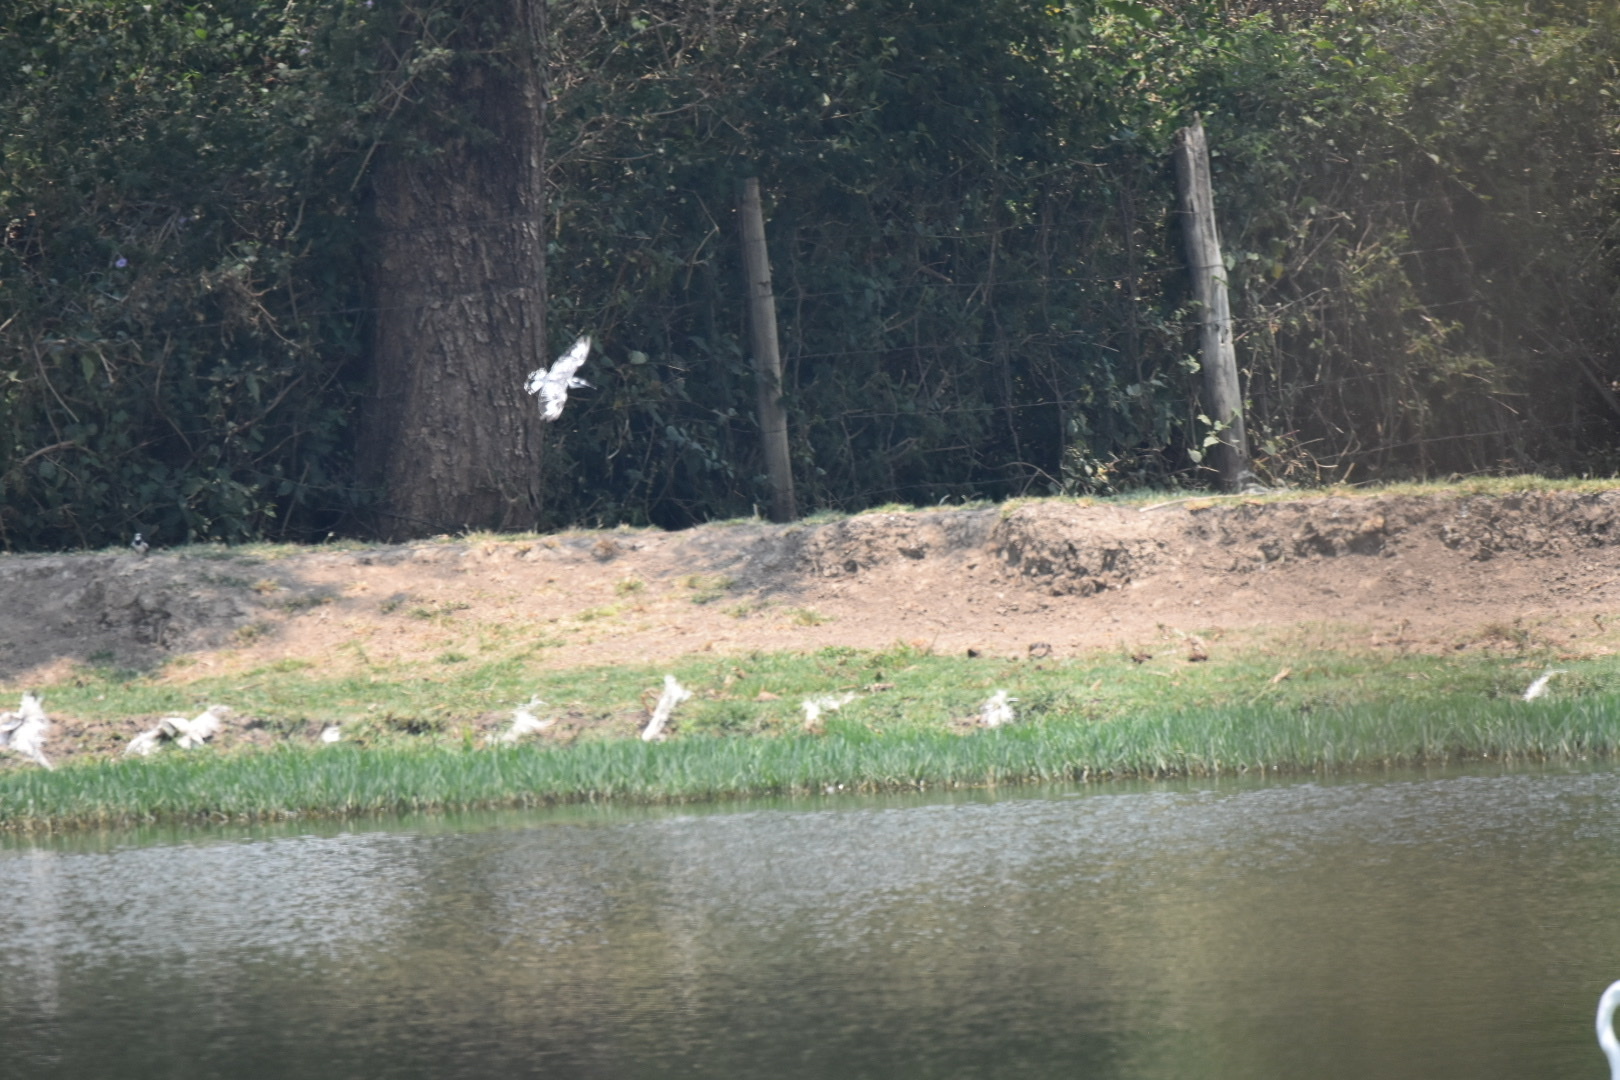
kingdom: Animalia
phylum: Chordata
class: Aves
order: Coraciiformes
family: Alcedinidae
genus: Ceryle
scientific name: Ceryle rudis
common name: Pied kingfisher
